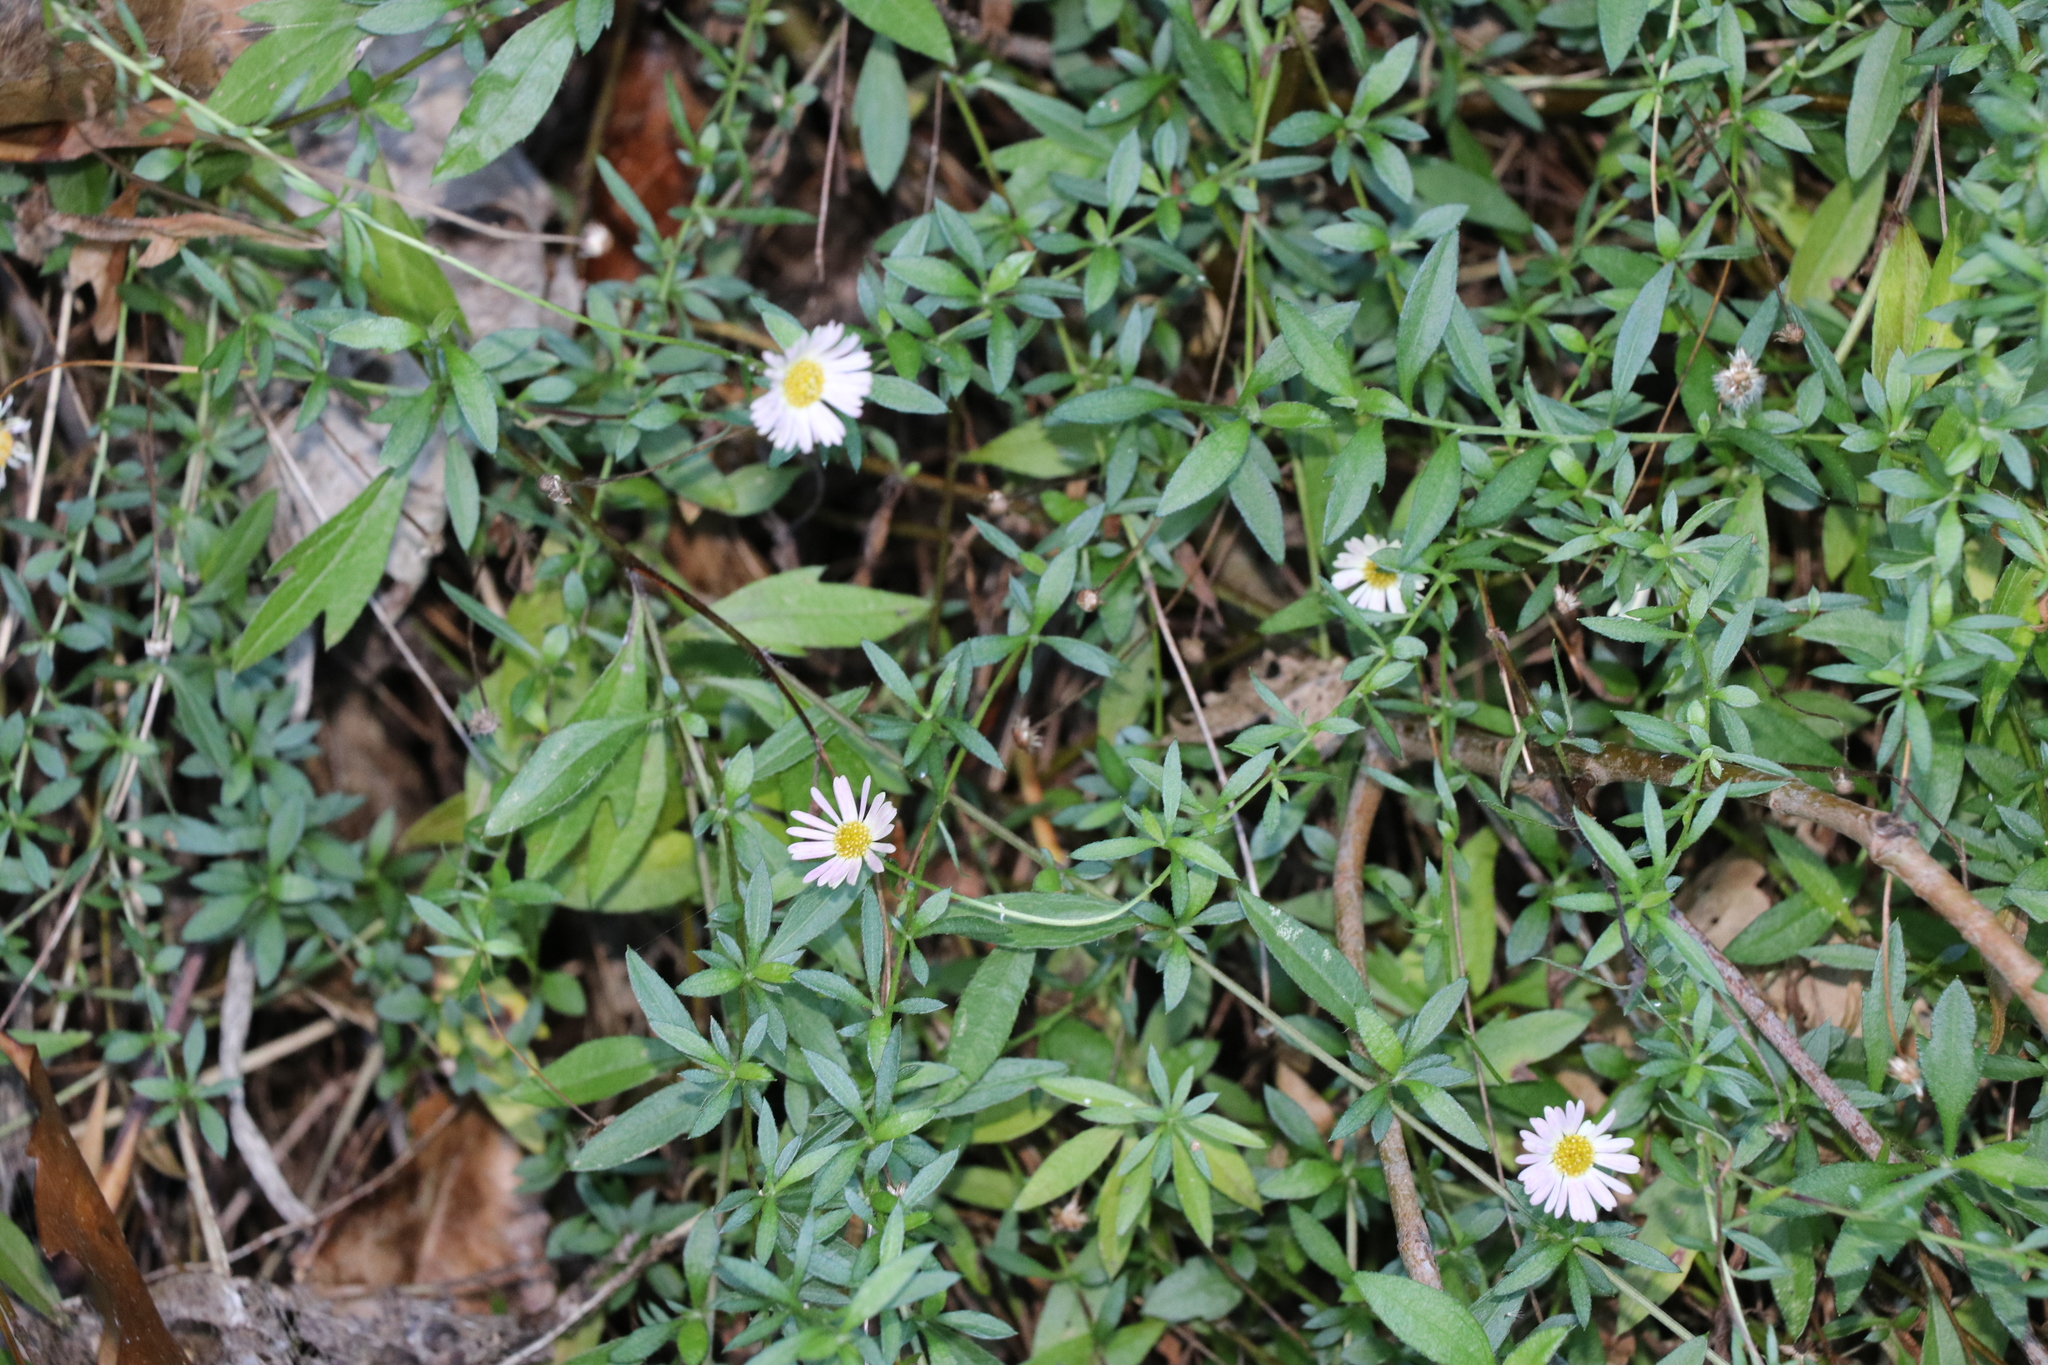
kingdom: Plantae
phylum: Tracheophyta
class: Magnoliopsida
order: Asterales
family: Asteraceae
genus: Erigeron
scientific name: Erigeron karvinskianus
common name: Mexican fleabane
